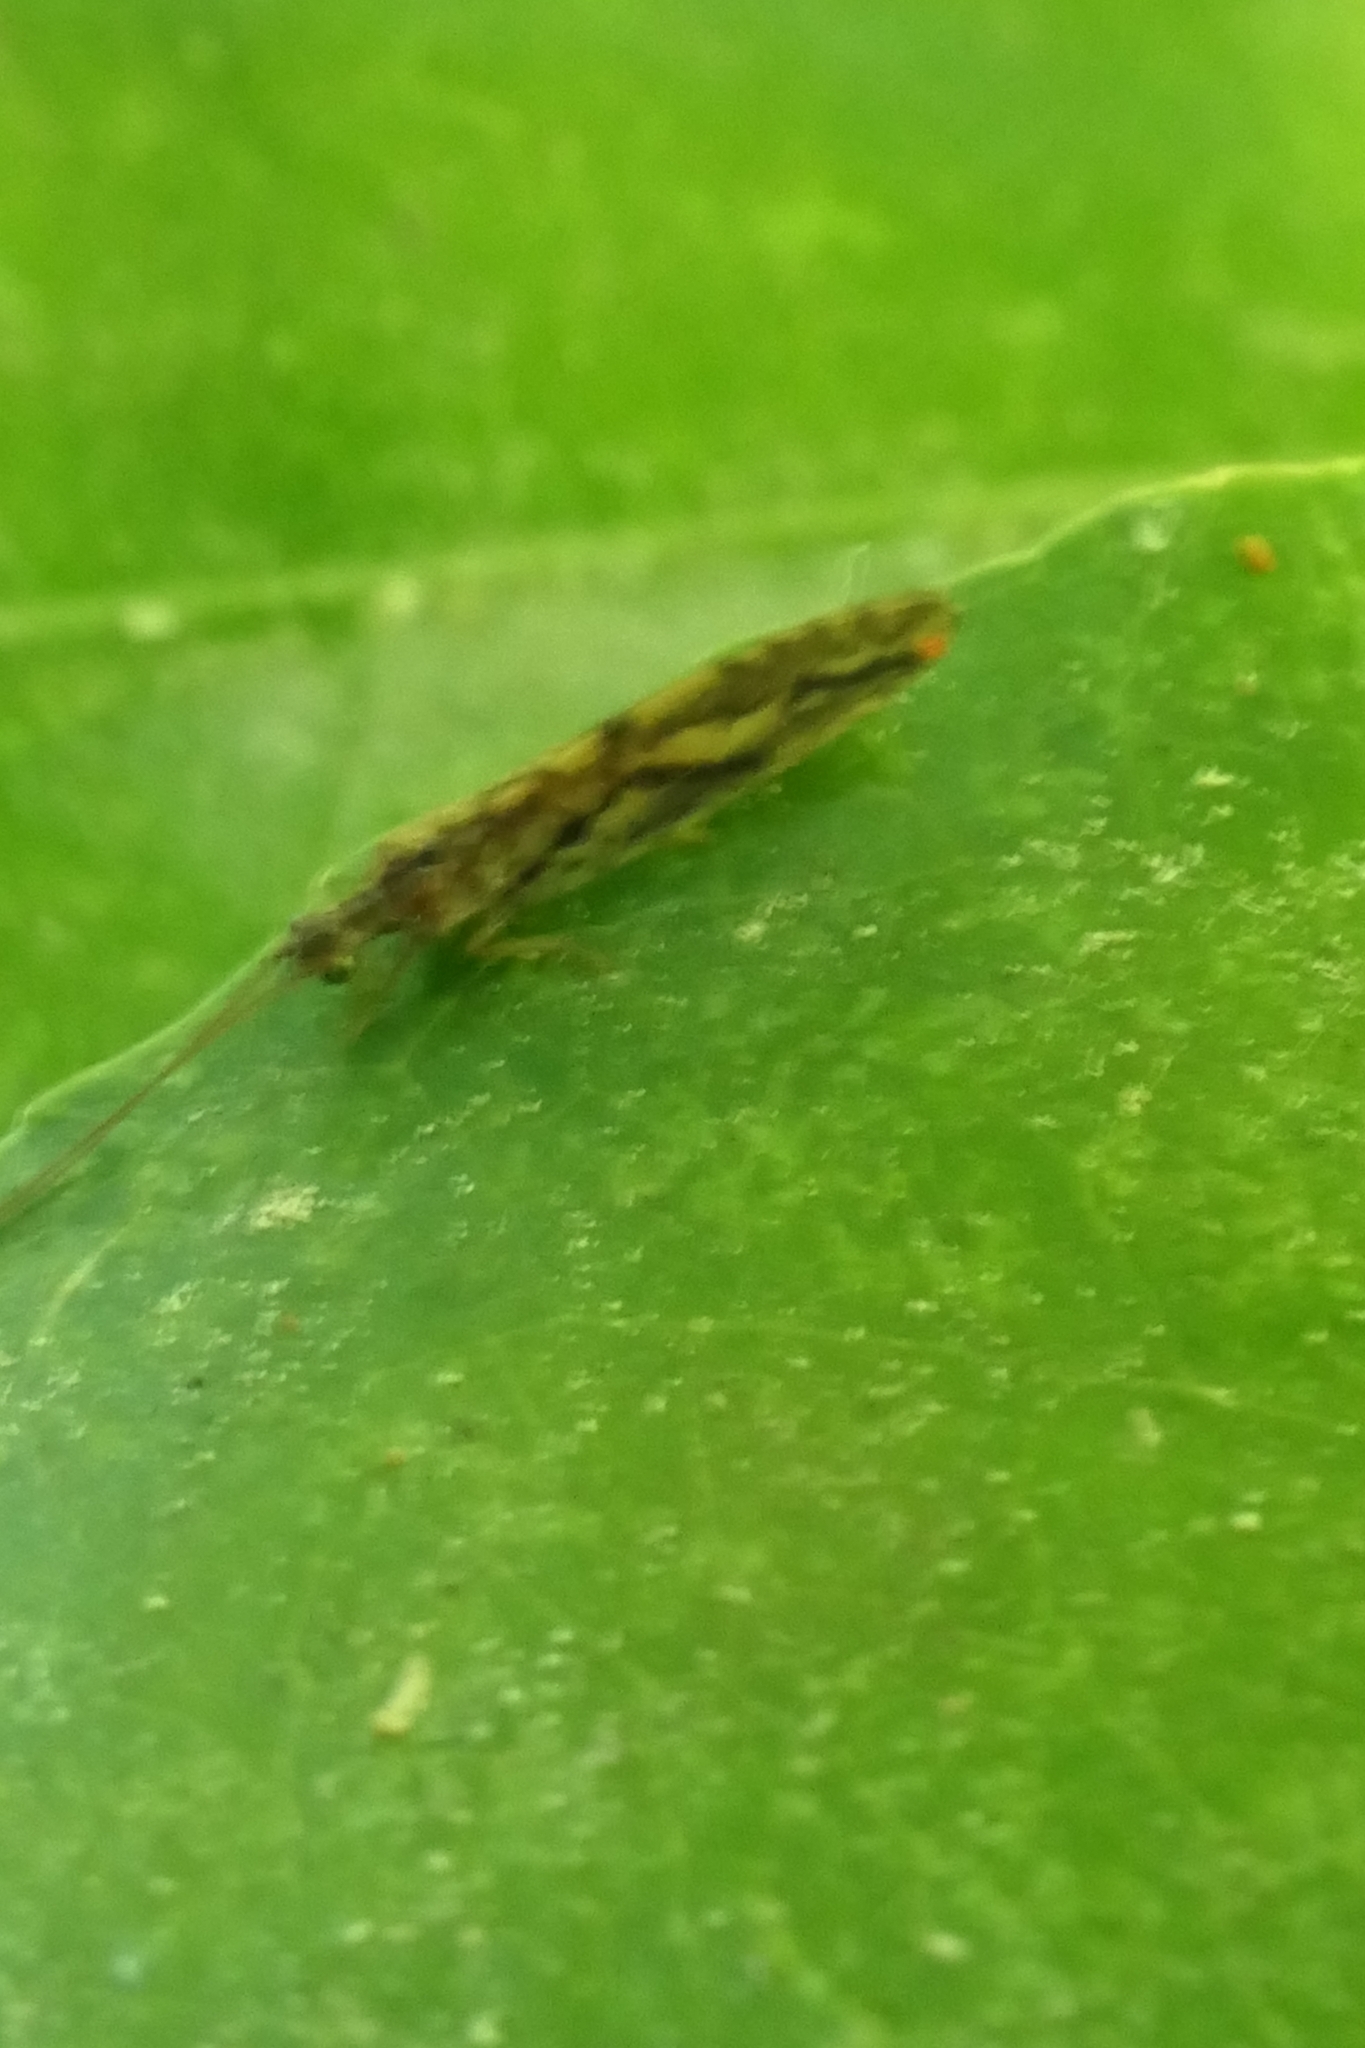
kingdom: Animalia
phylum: Arthropoda
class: Insecta
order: Neuroptera
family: Hemerobiidae
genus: Micromus
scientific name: Micromus bifasciatus
